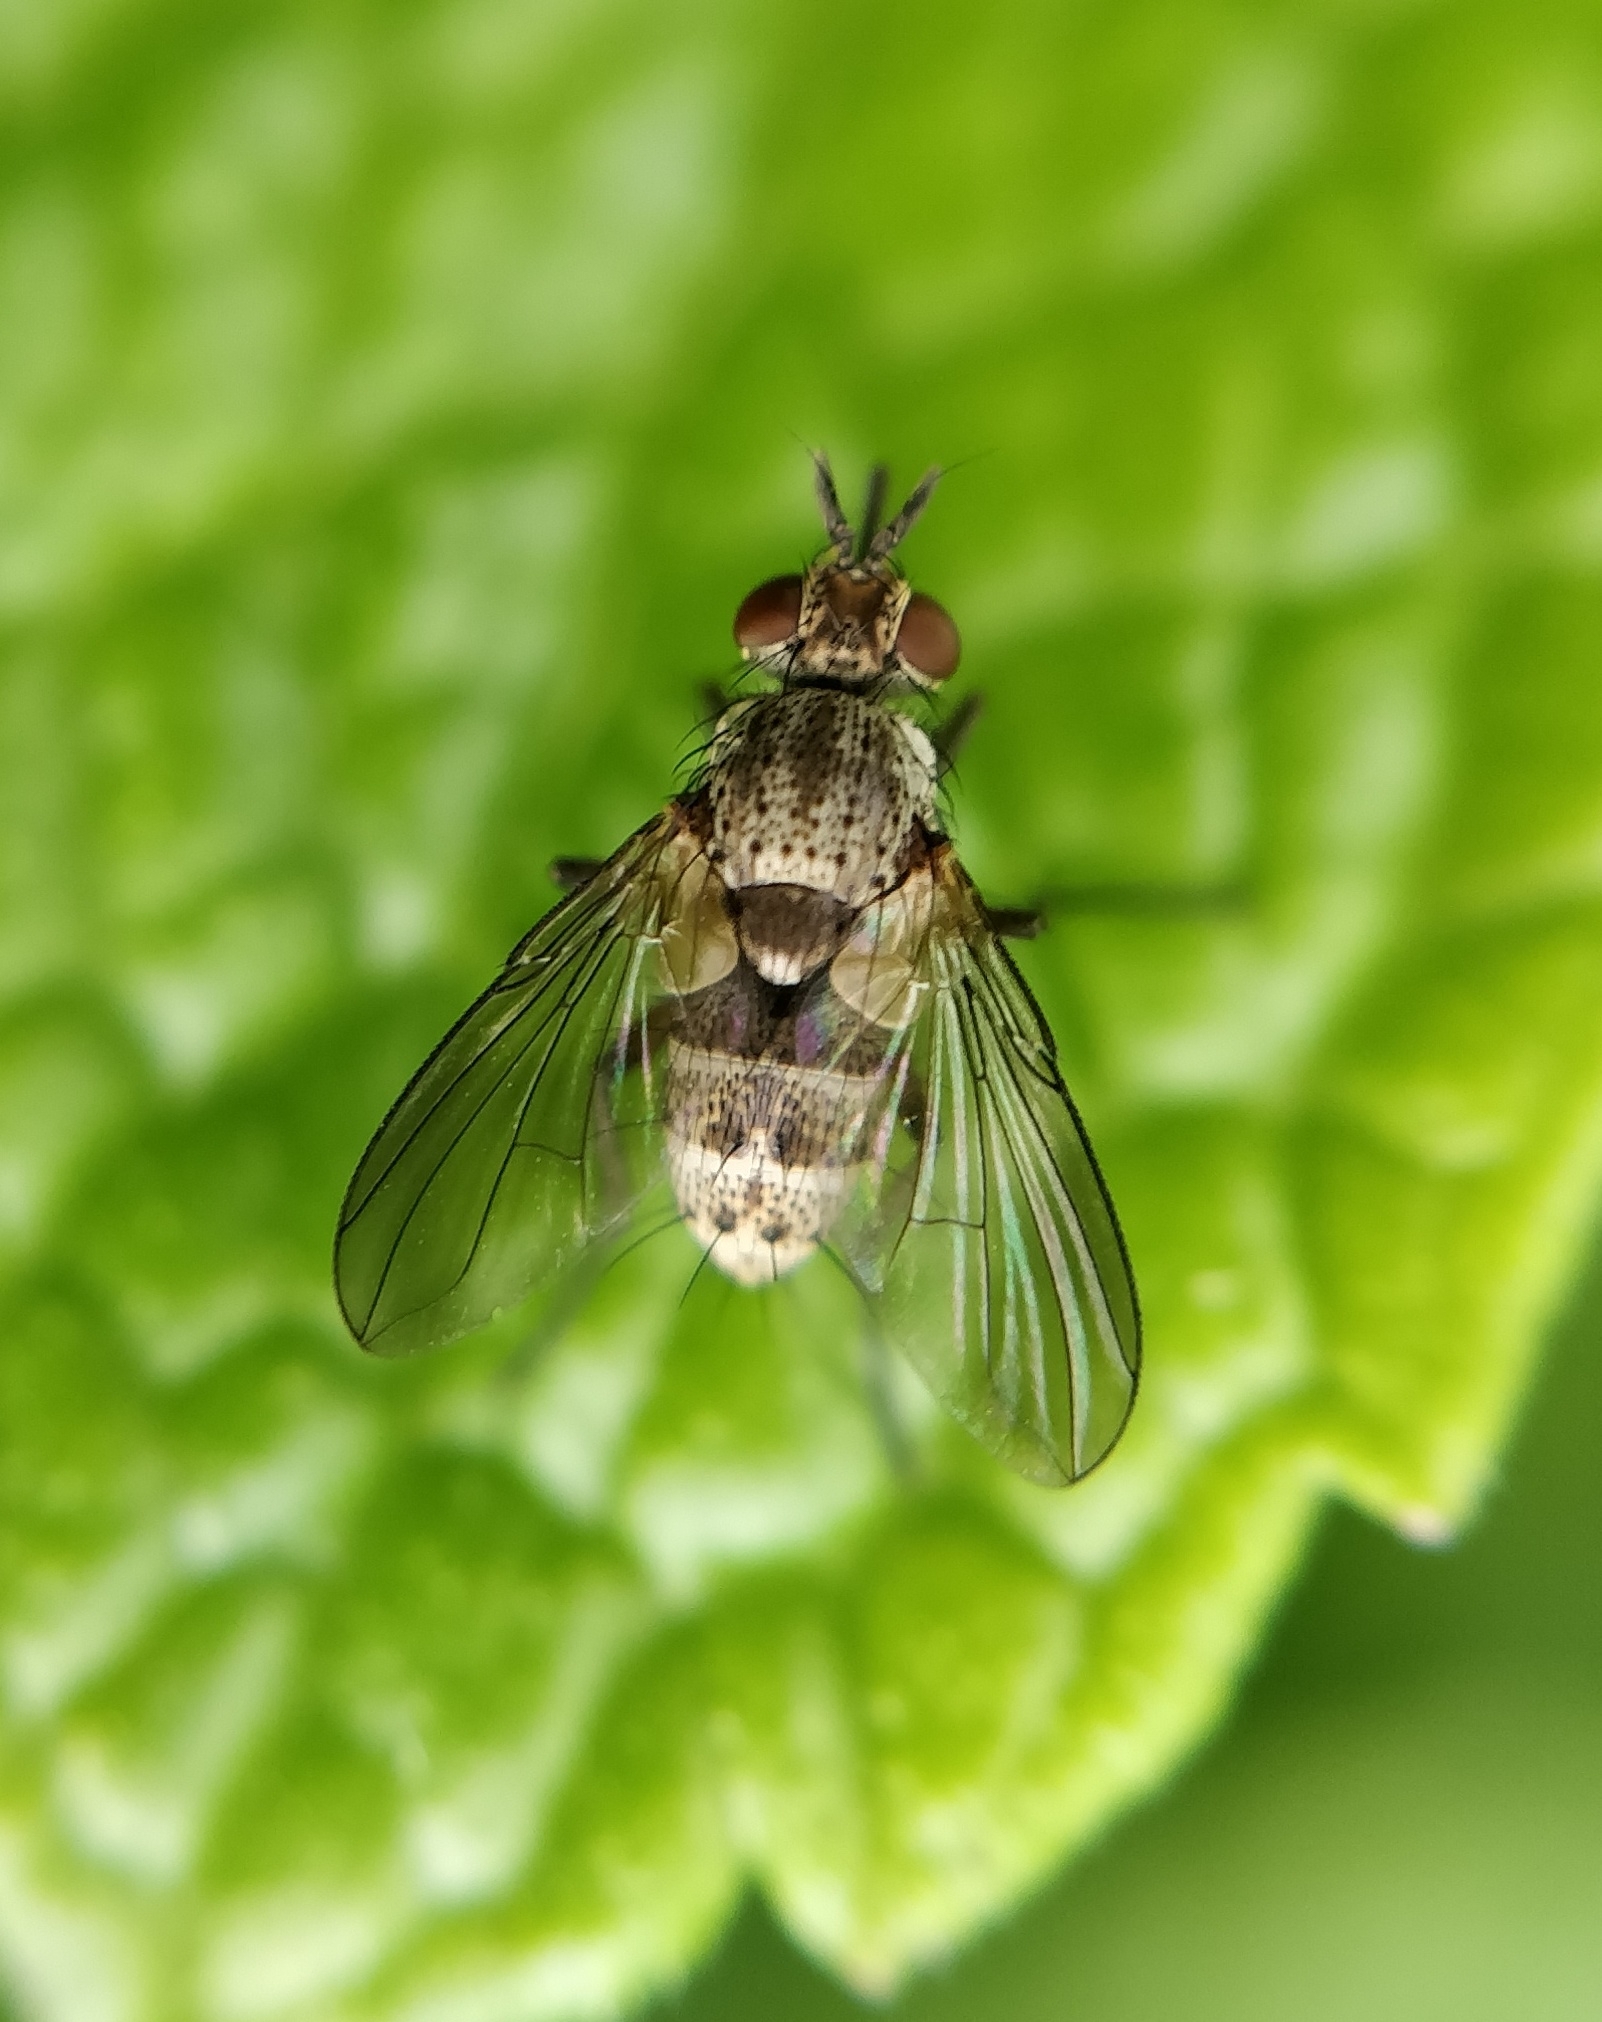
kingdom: Animalia
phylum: Arthropoda
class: Insecta
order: Diptera
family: Tachinidae
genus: Siphona
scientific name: Siphona seyrigi
